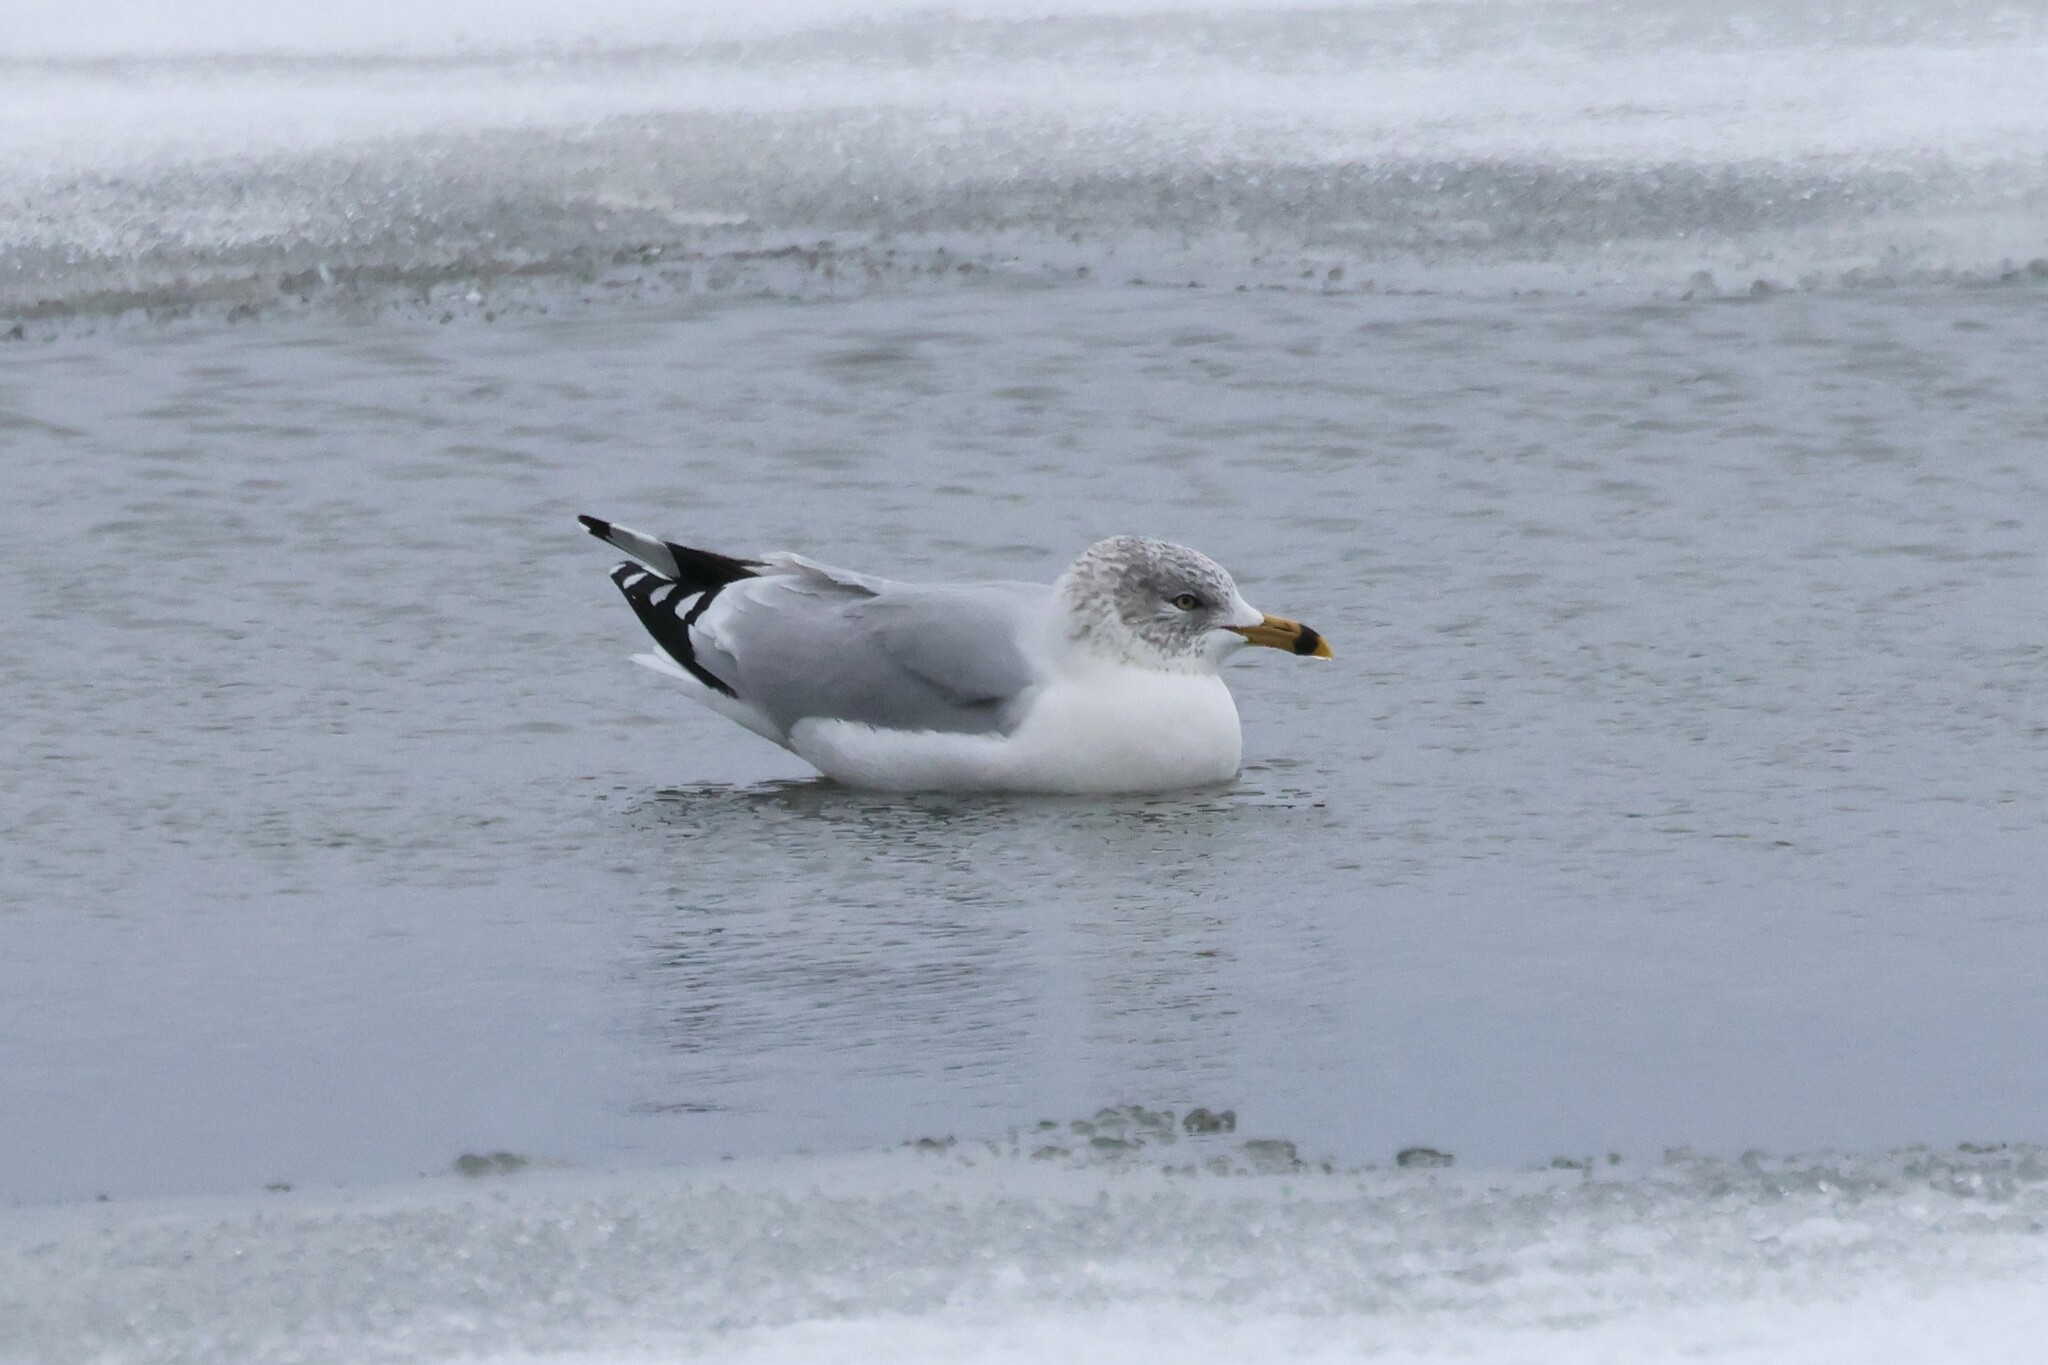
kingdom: Animalia
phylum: Chordata
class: Aves
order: Charadriiformes
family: Laridae
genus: Larus
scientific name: Larus delawarensis
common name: Ring-billed gull
